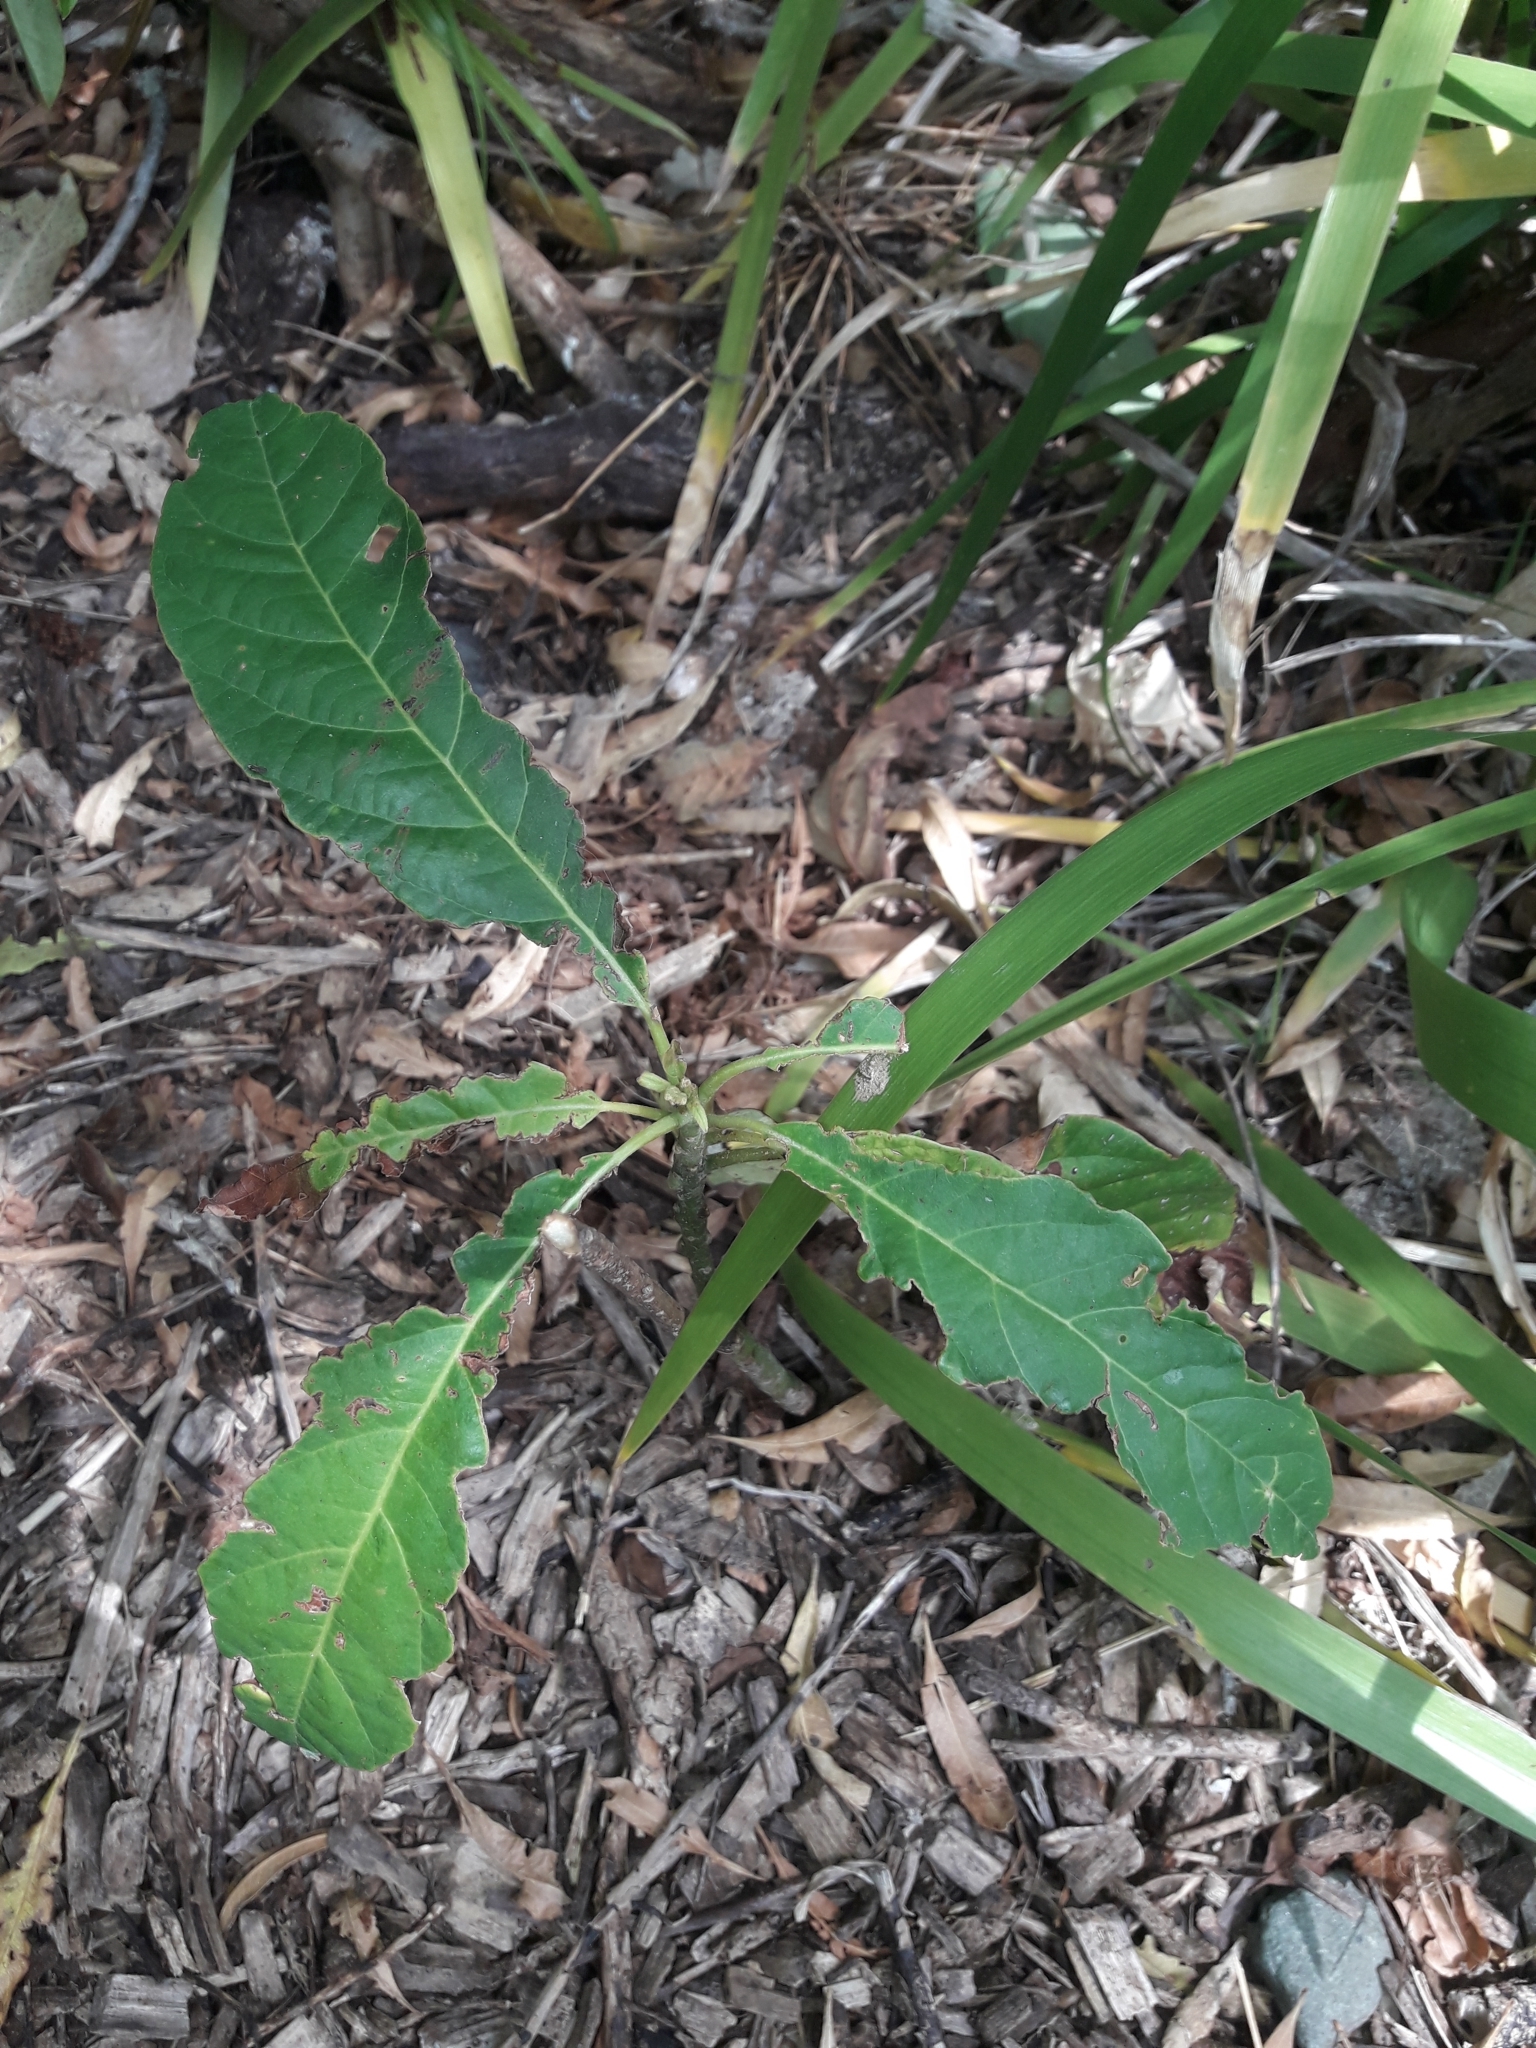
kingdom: Plantae
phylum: Tracheophyta
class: Magnoliopsida
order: Laurales
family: Lauraceae
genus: Persea
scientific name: Persea americana
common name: Avocado
